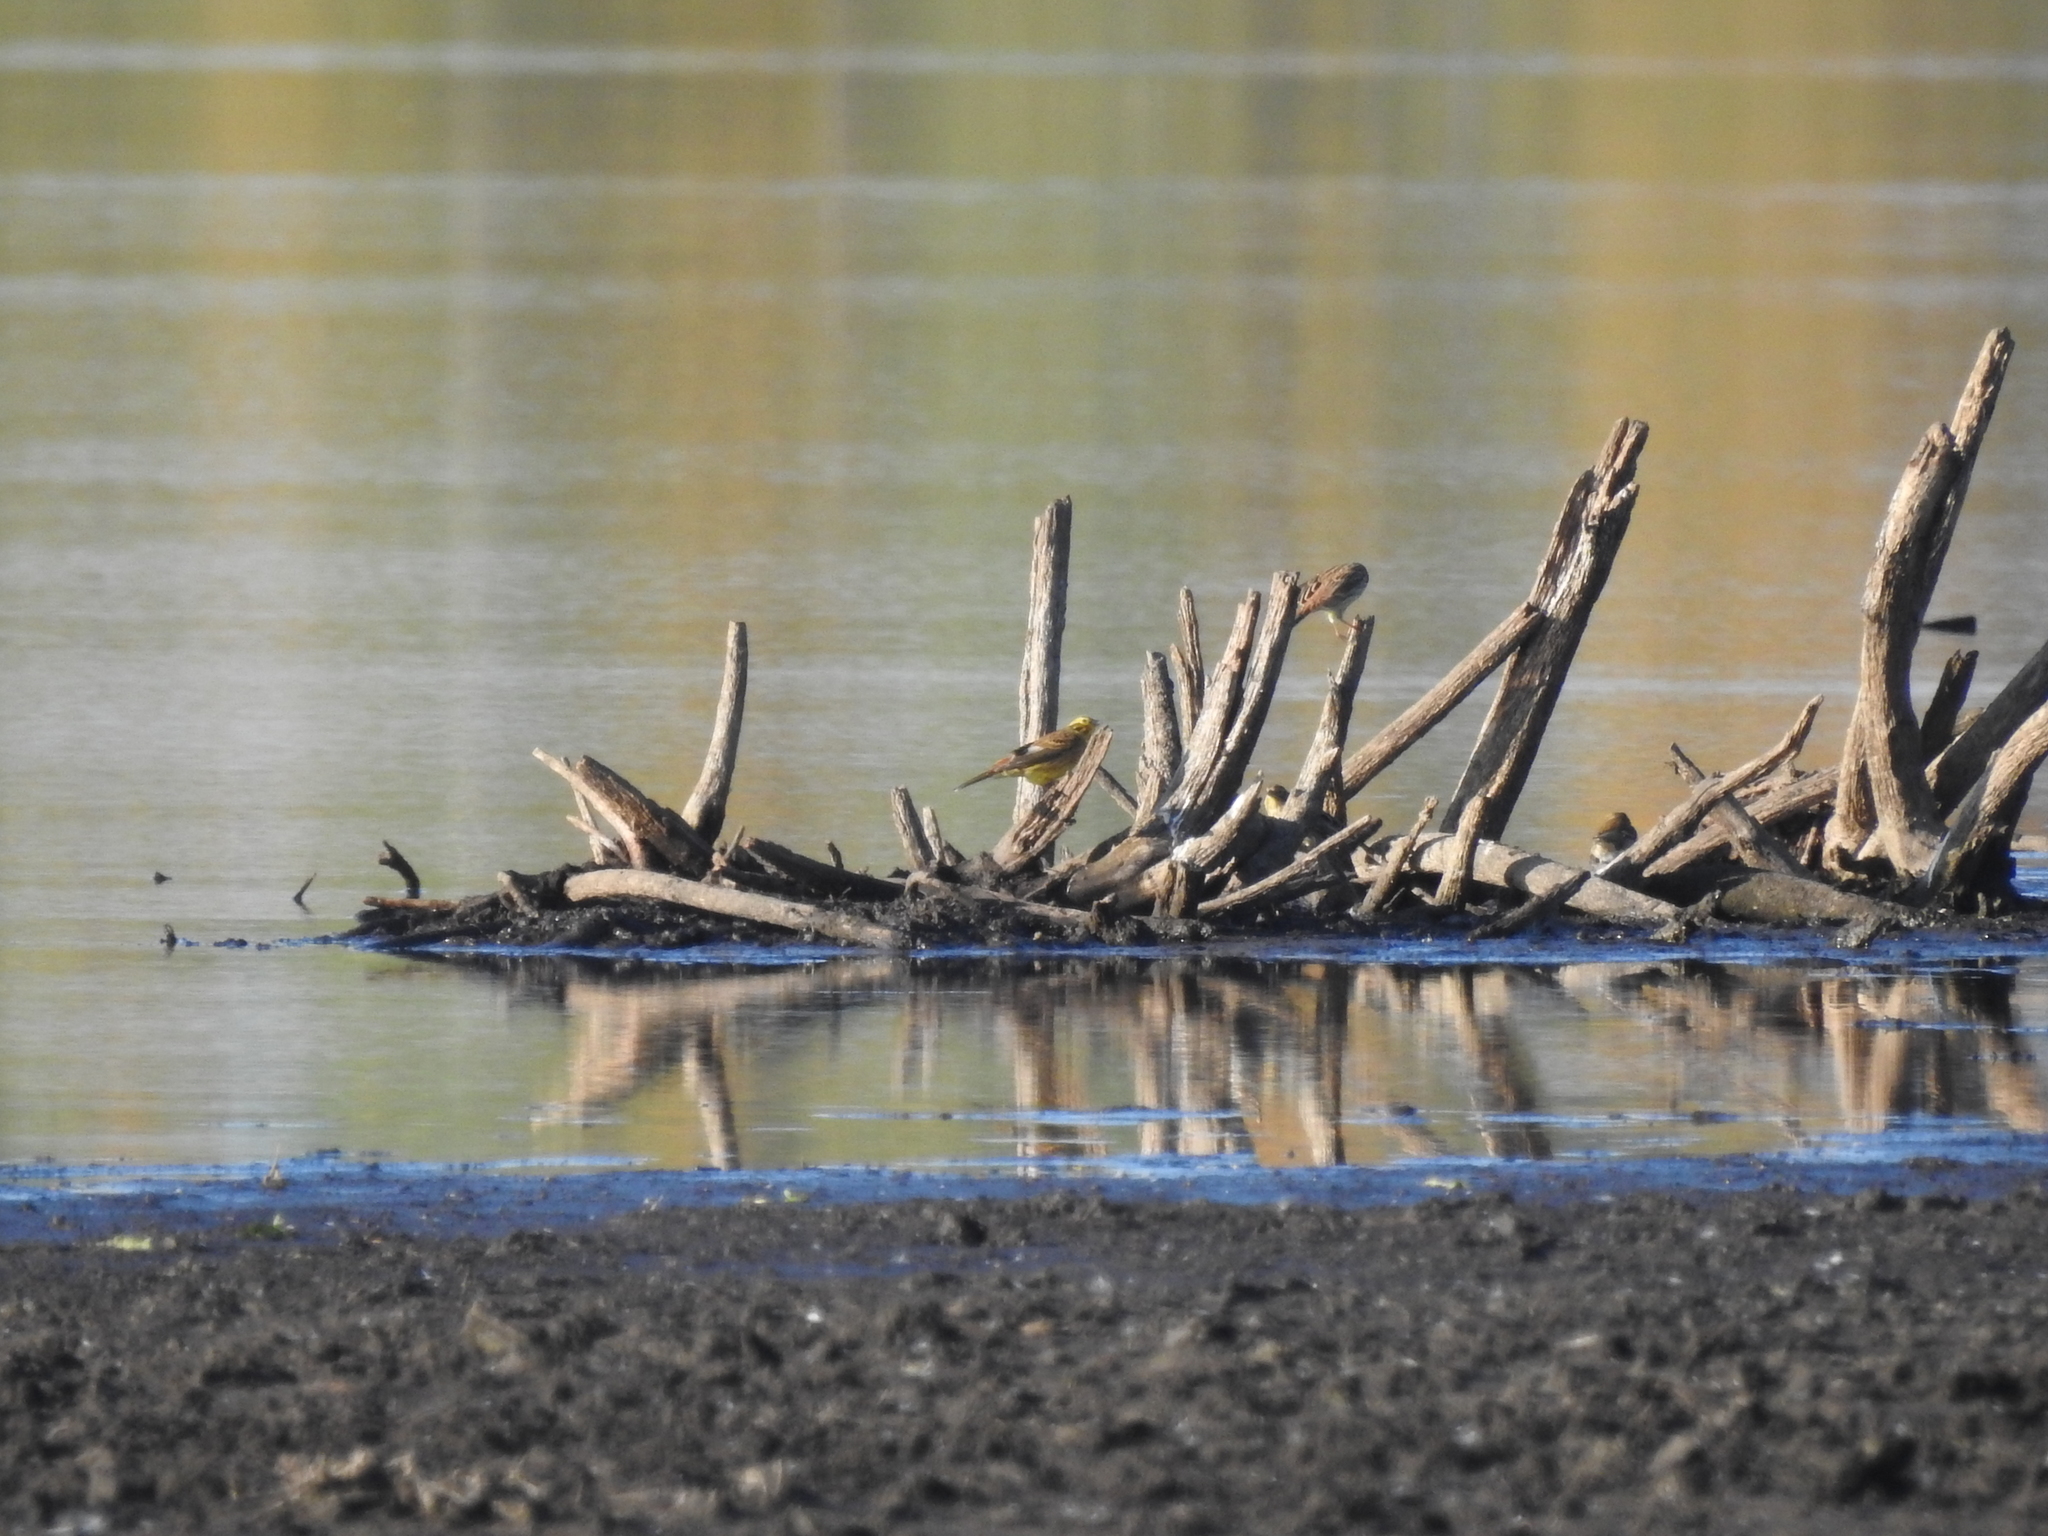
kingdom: Animalia
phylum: Chordata
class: Aves
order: Passeriformes
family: Emberizidae
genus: Emberiza
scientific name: Emberiza citrinella
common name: Yellowhammer
